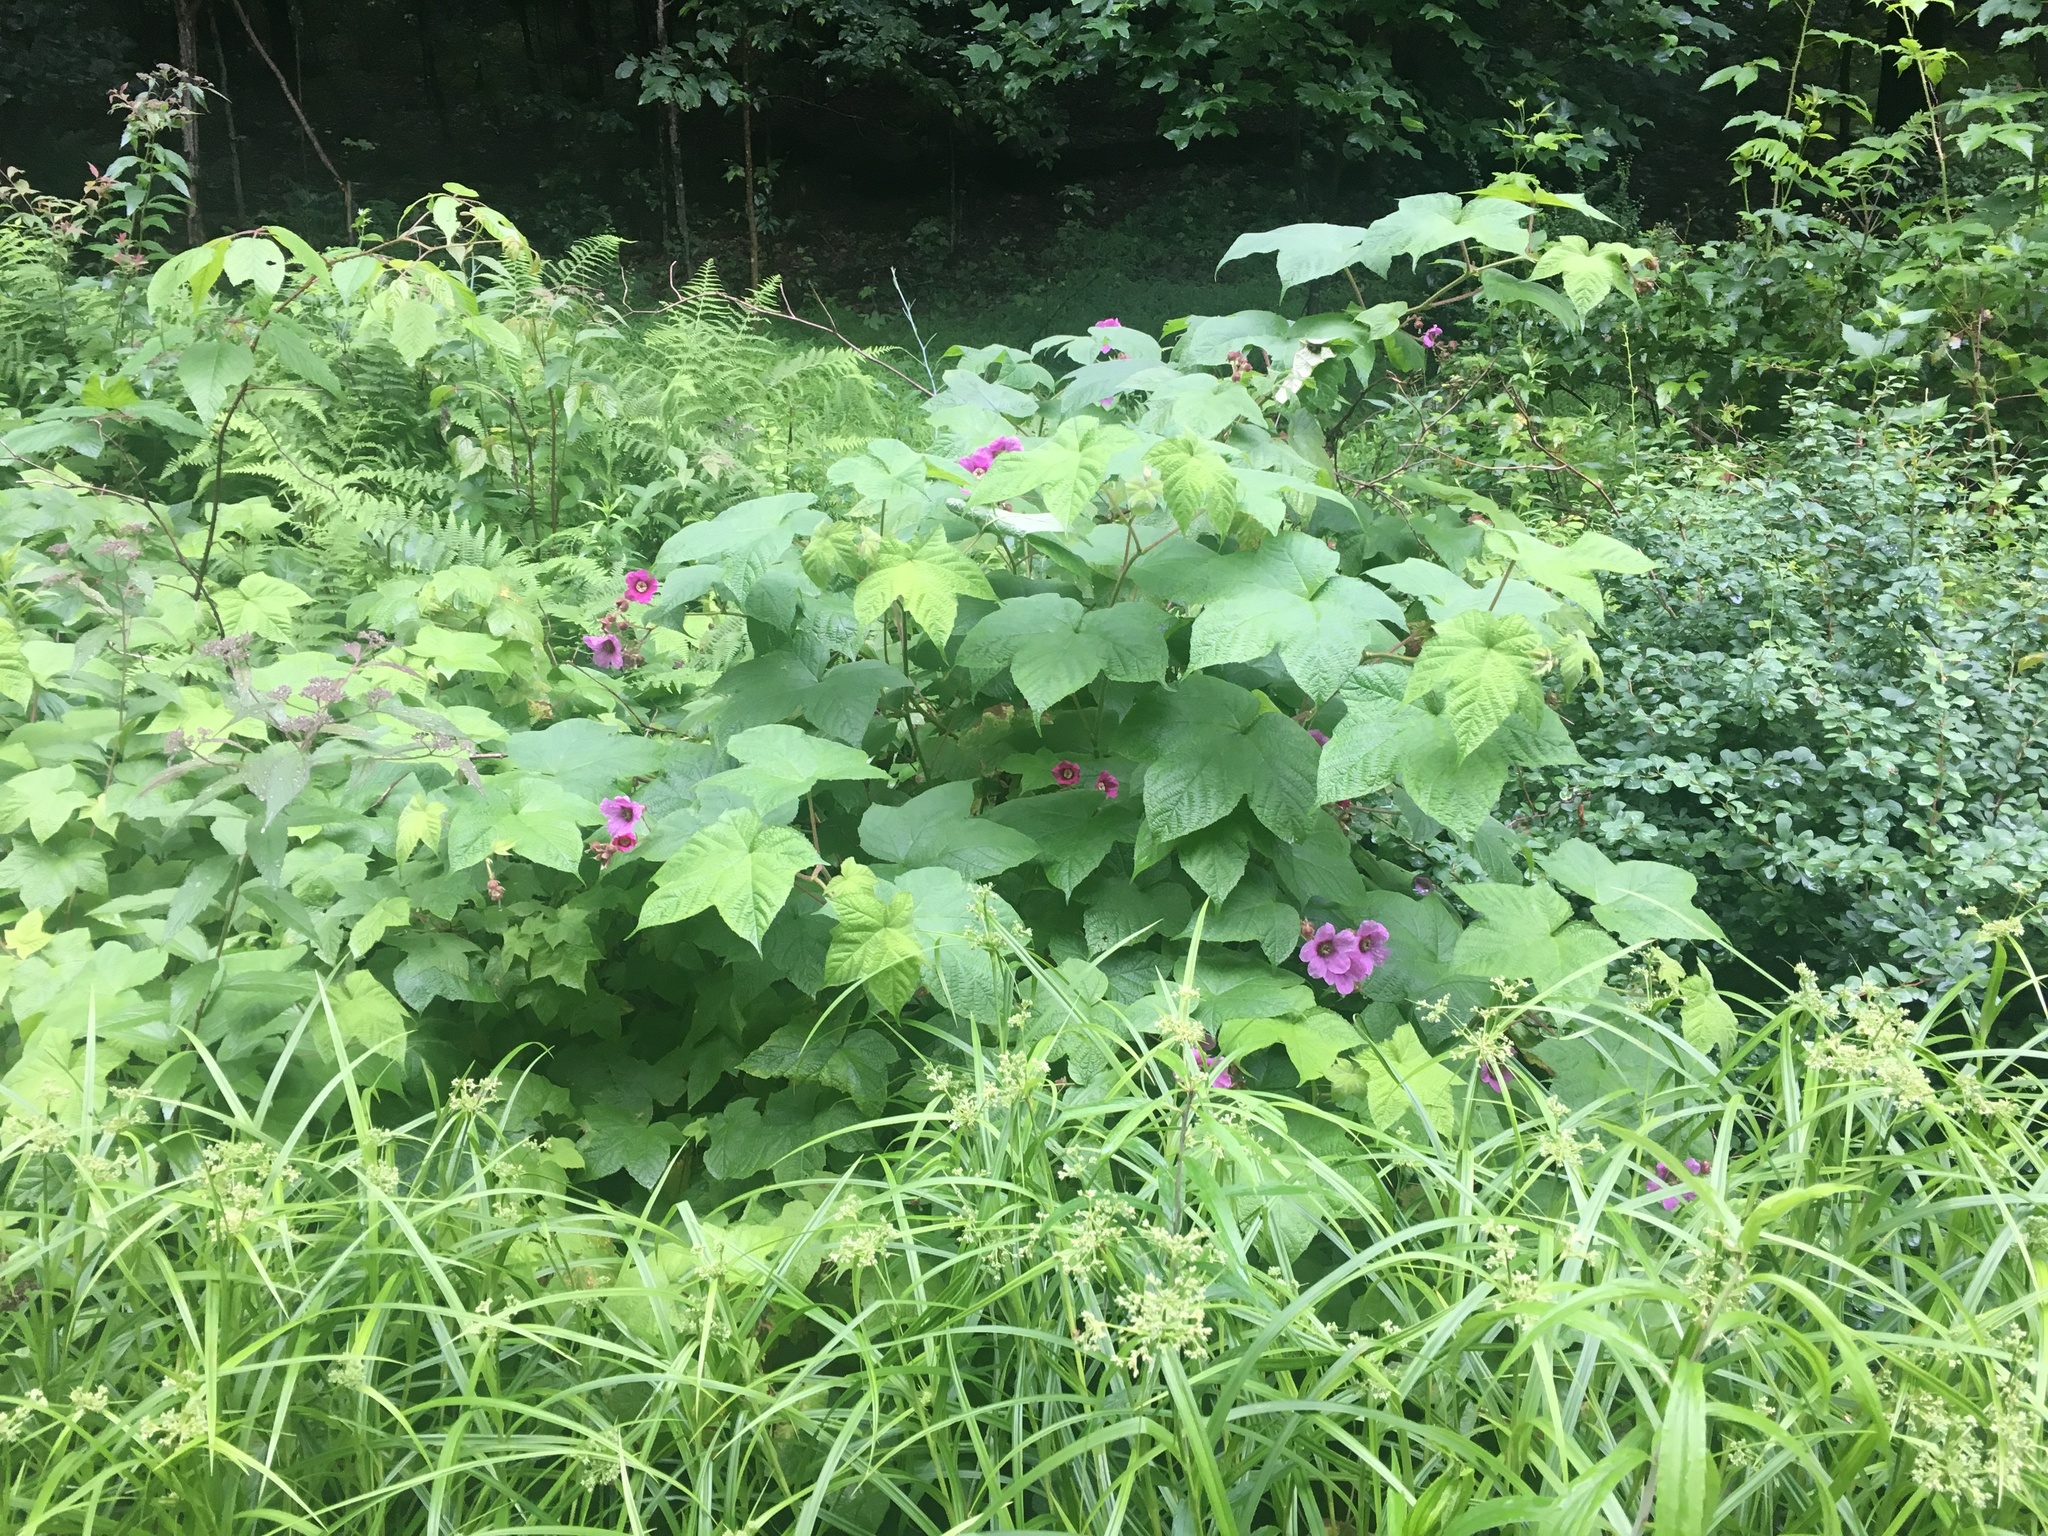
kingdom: Plantae
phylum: Tracheophyta
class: Magnoliopsida
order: Rosales
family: Rosaceae
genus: Rubus
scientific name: Rubus odoratus
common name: Purple-flowered raspberry
